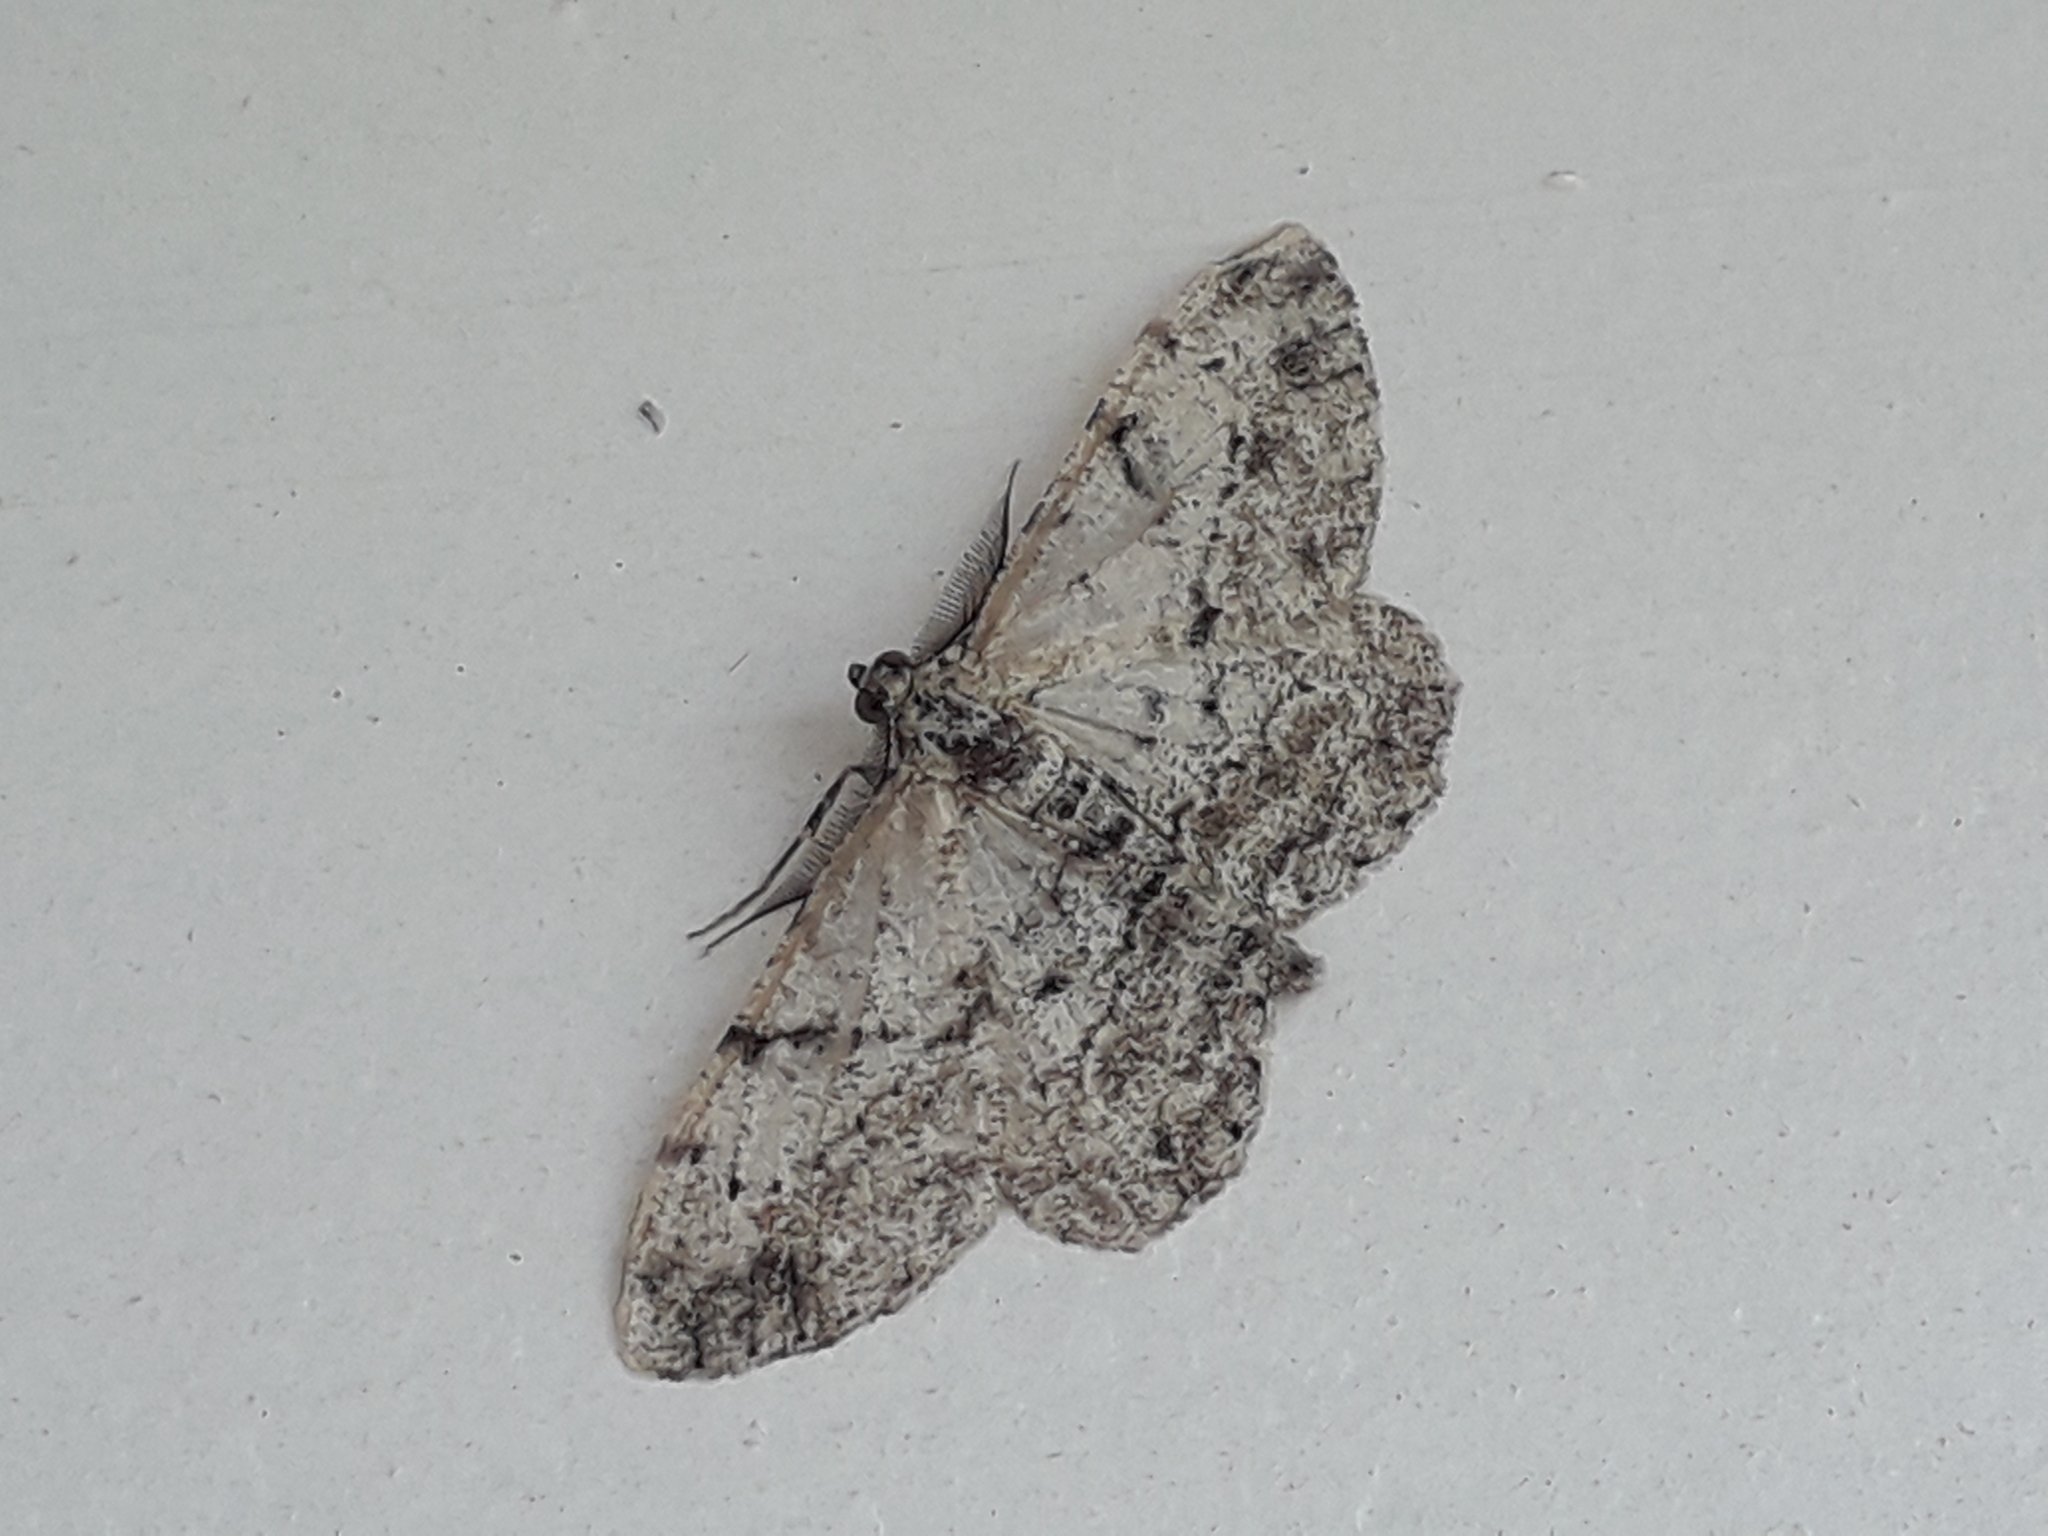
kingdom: Animalia
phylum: Arthropoda
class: Insecta
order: Lepidoptera
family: Geometridae
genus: Peribatodes
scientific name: Peribatodes rhomboidaria
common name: Willow beauty
